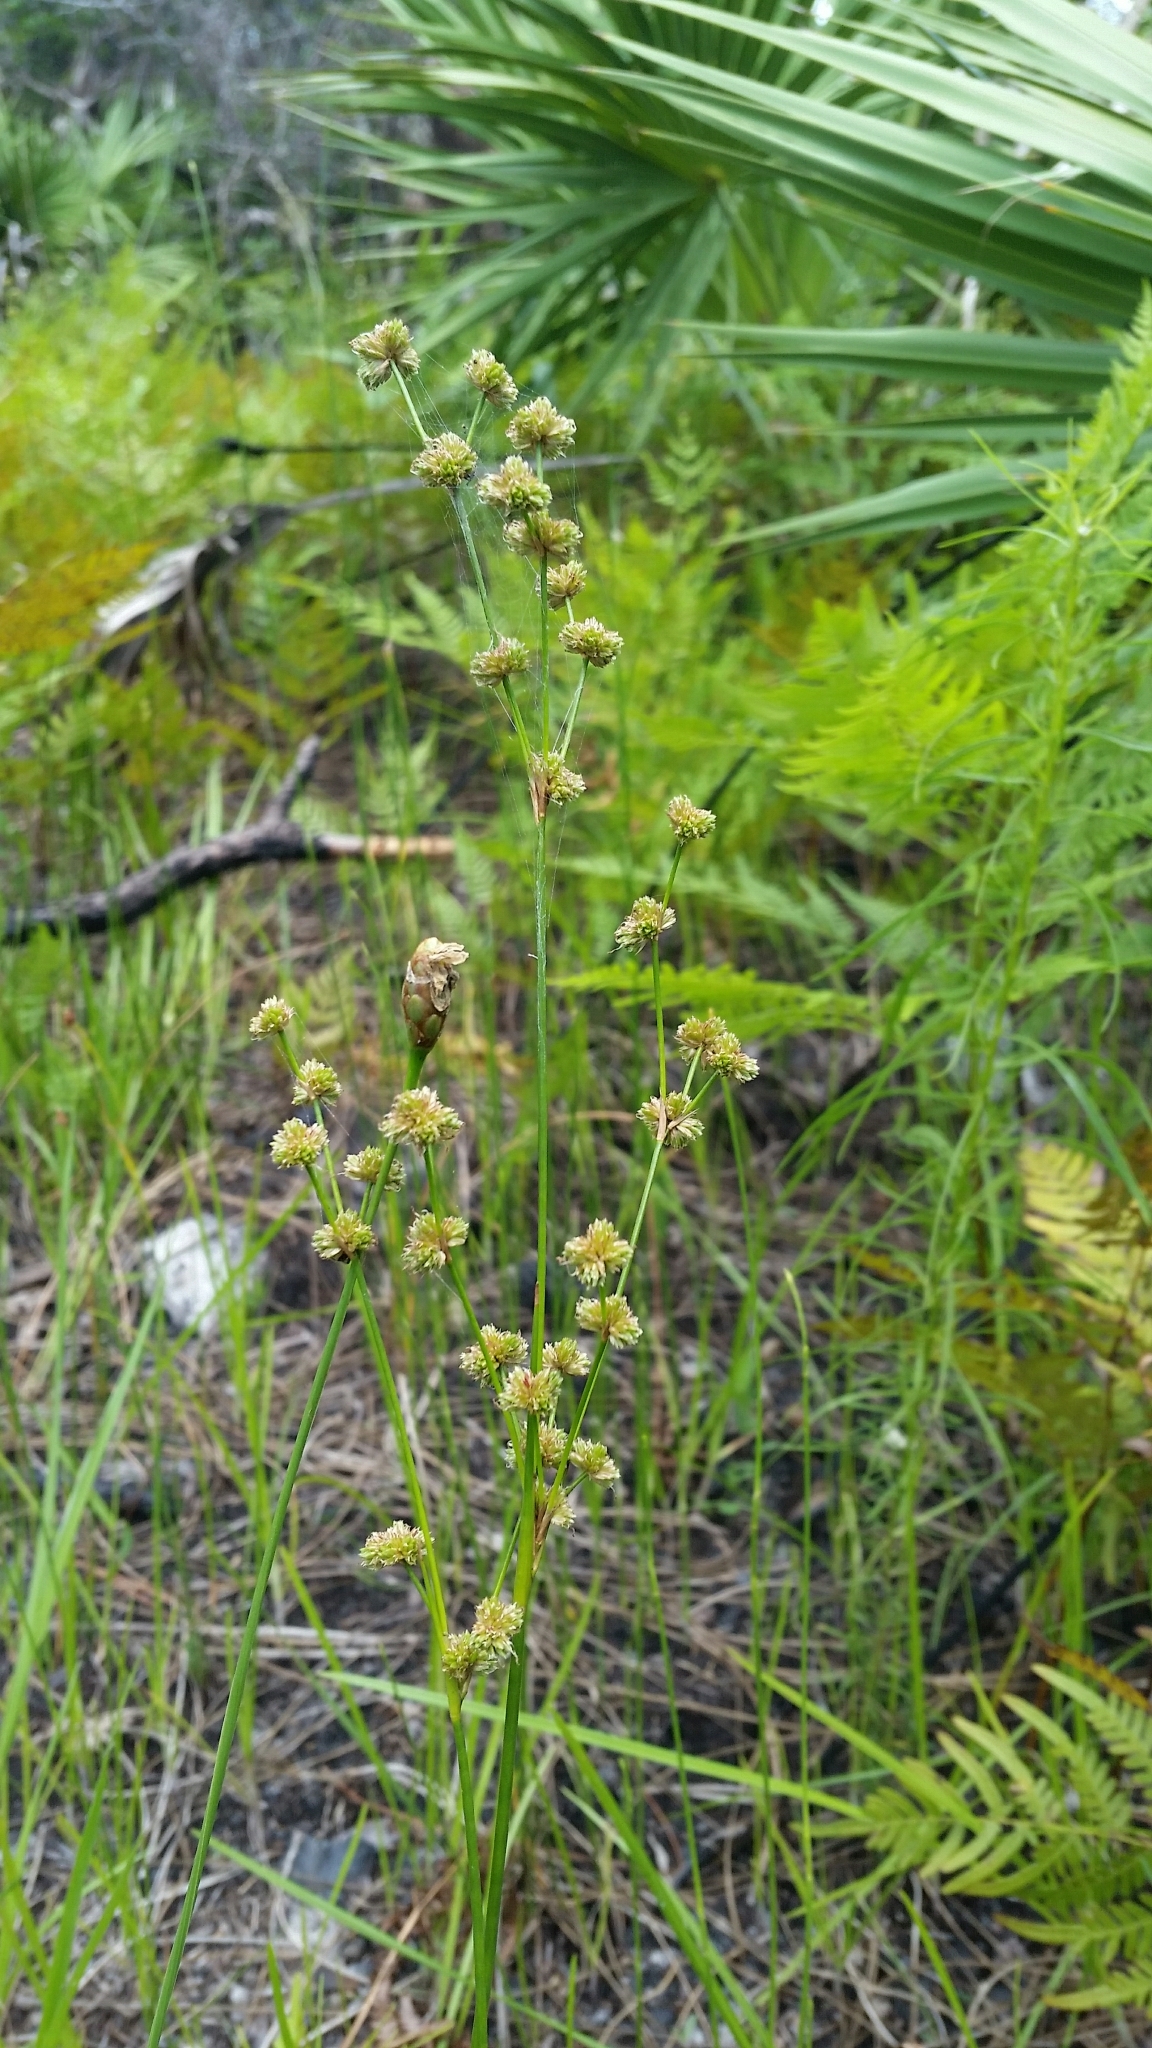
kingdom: Plantae
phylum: Tracheophyta
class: Liliopsida
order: Poales
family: Juncaceae
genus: Juncus
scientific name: Juncus scirpoides
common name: Needlepod rush
